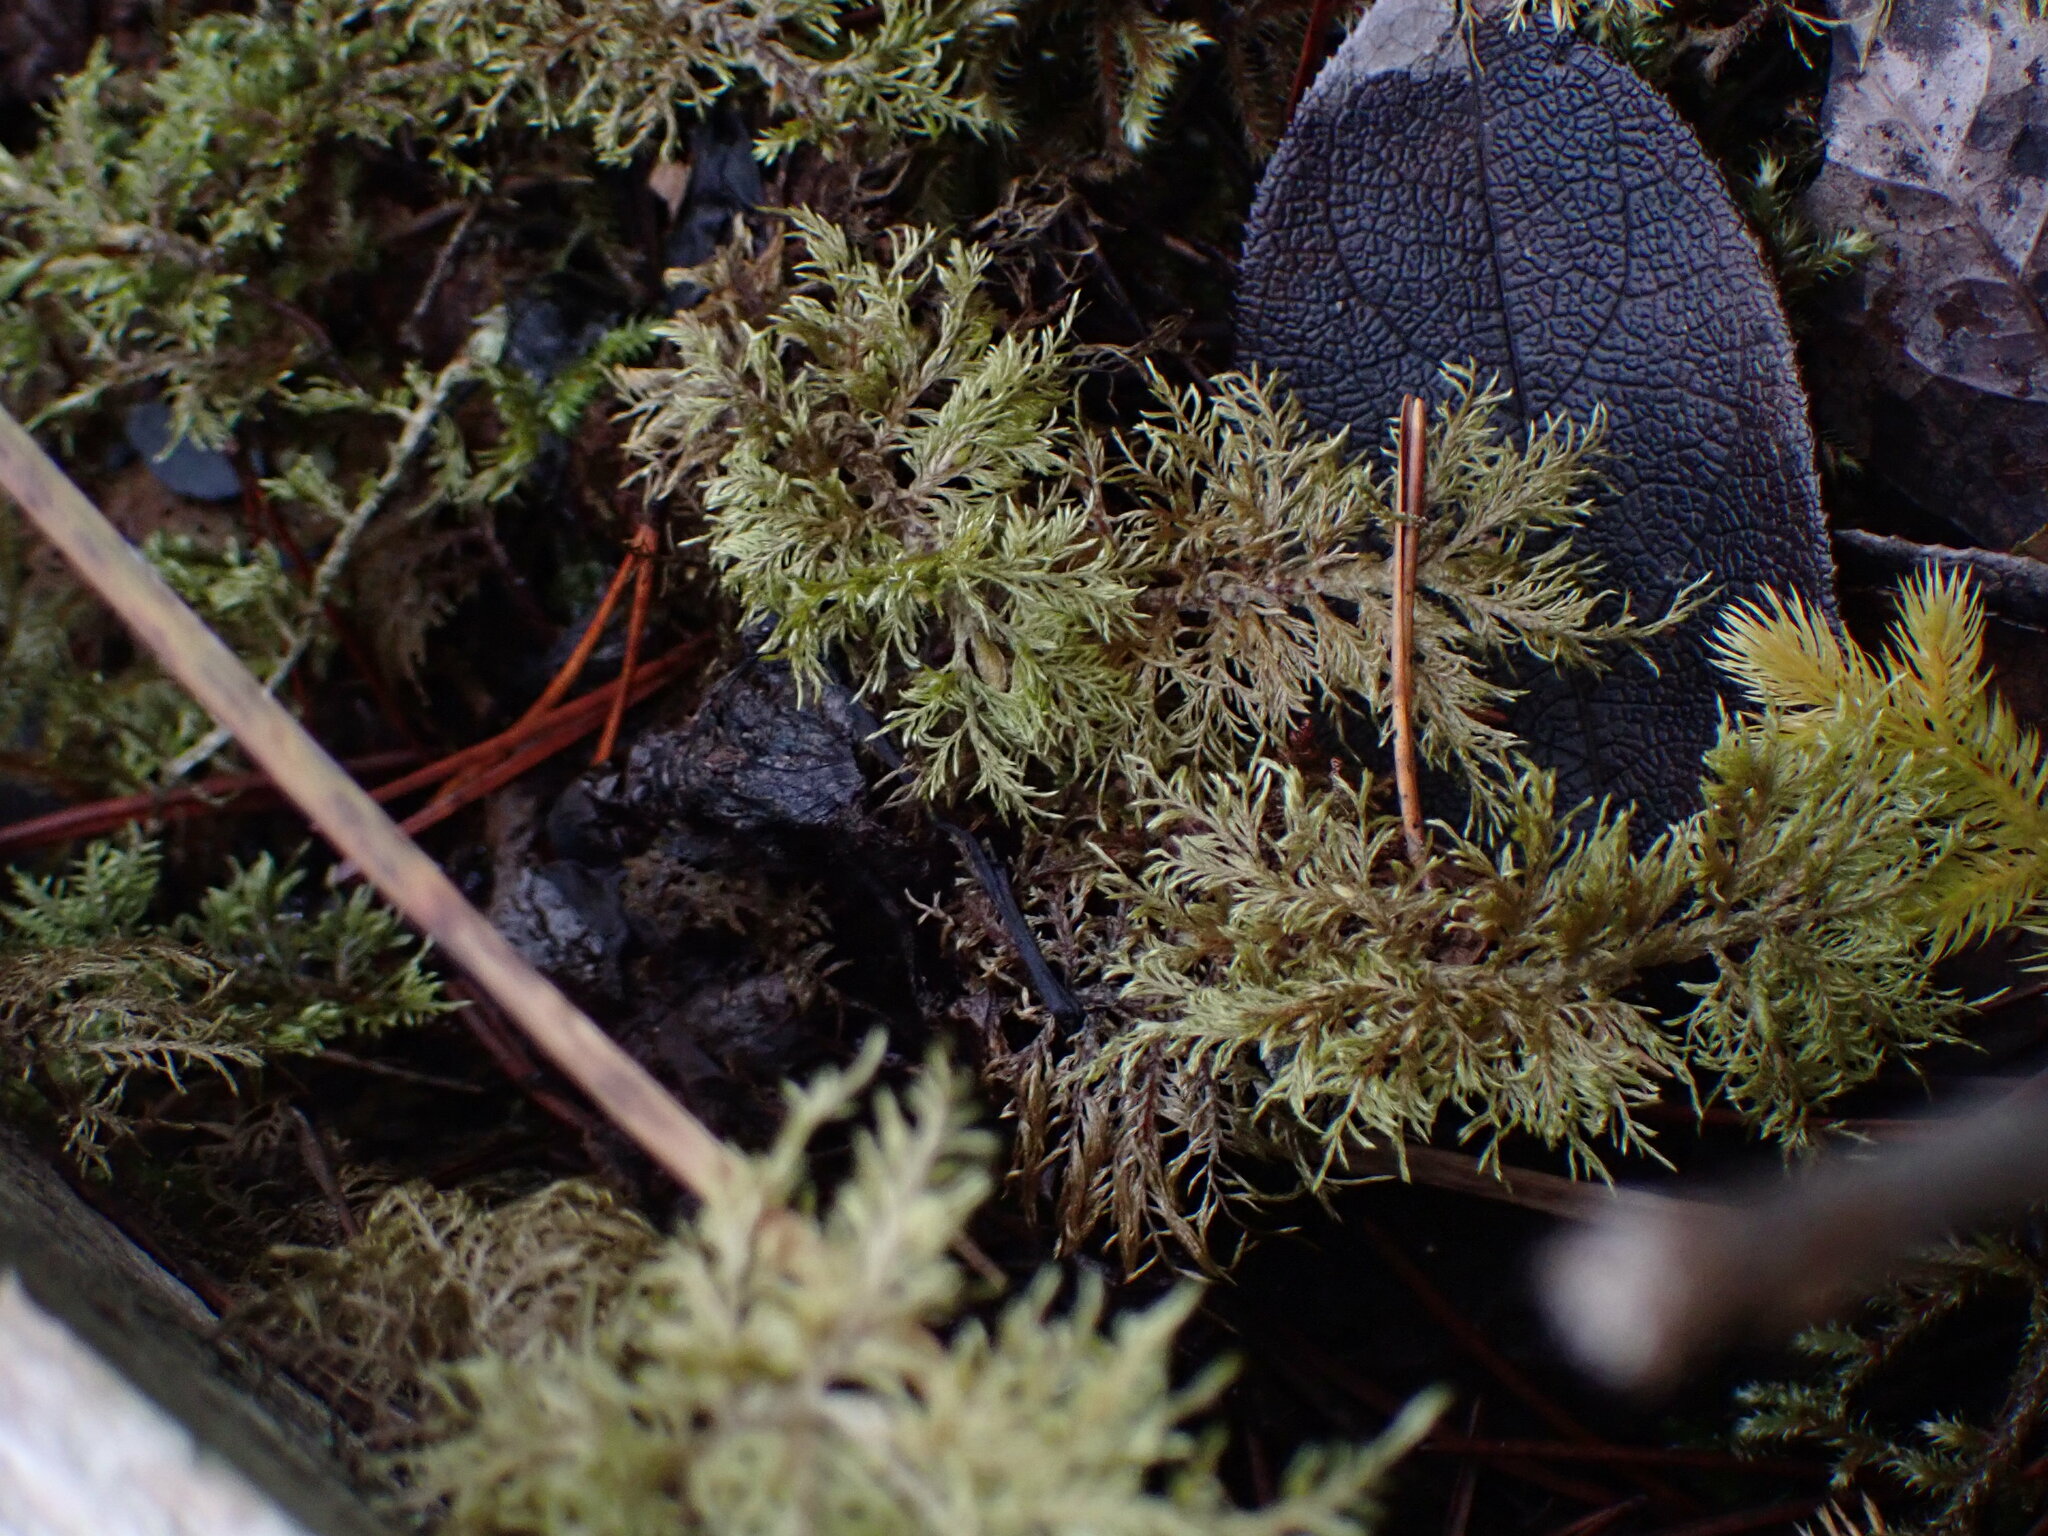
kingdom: Plantae
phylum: Bryophyta
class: Bryopsida
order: Hypnales
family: Hylocomiaceae
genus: Hylocomium
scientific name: Hylocomium splendens
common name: Stairstep moss
